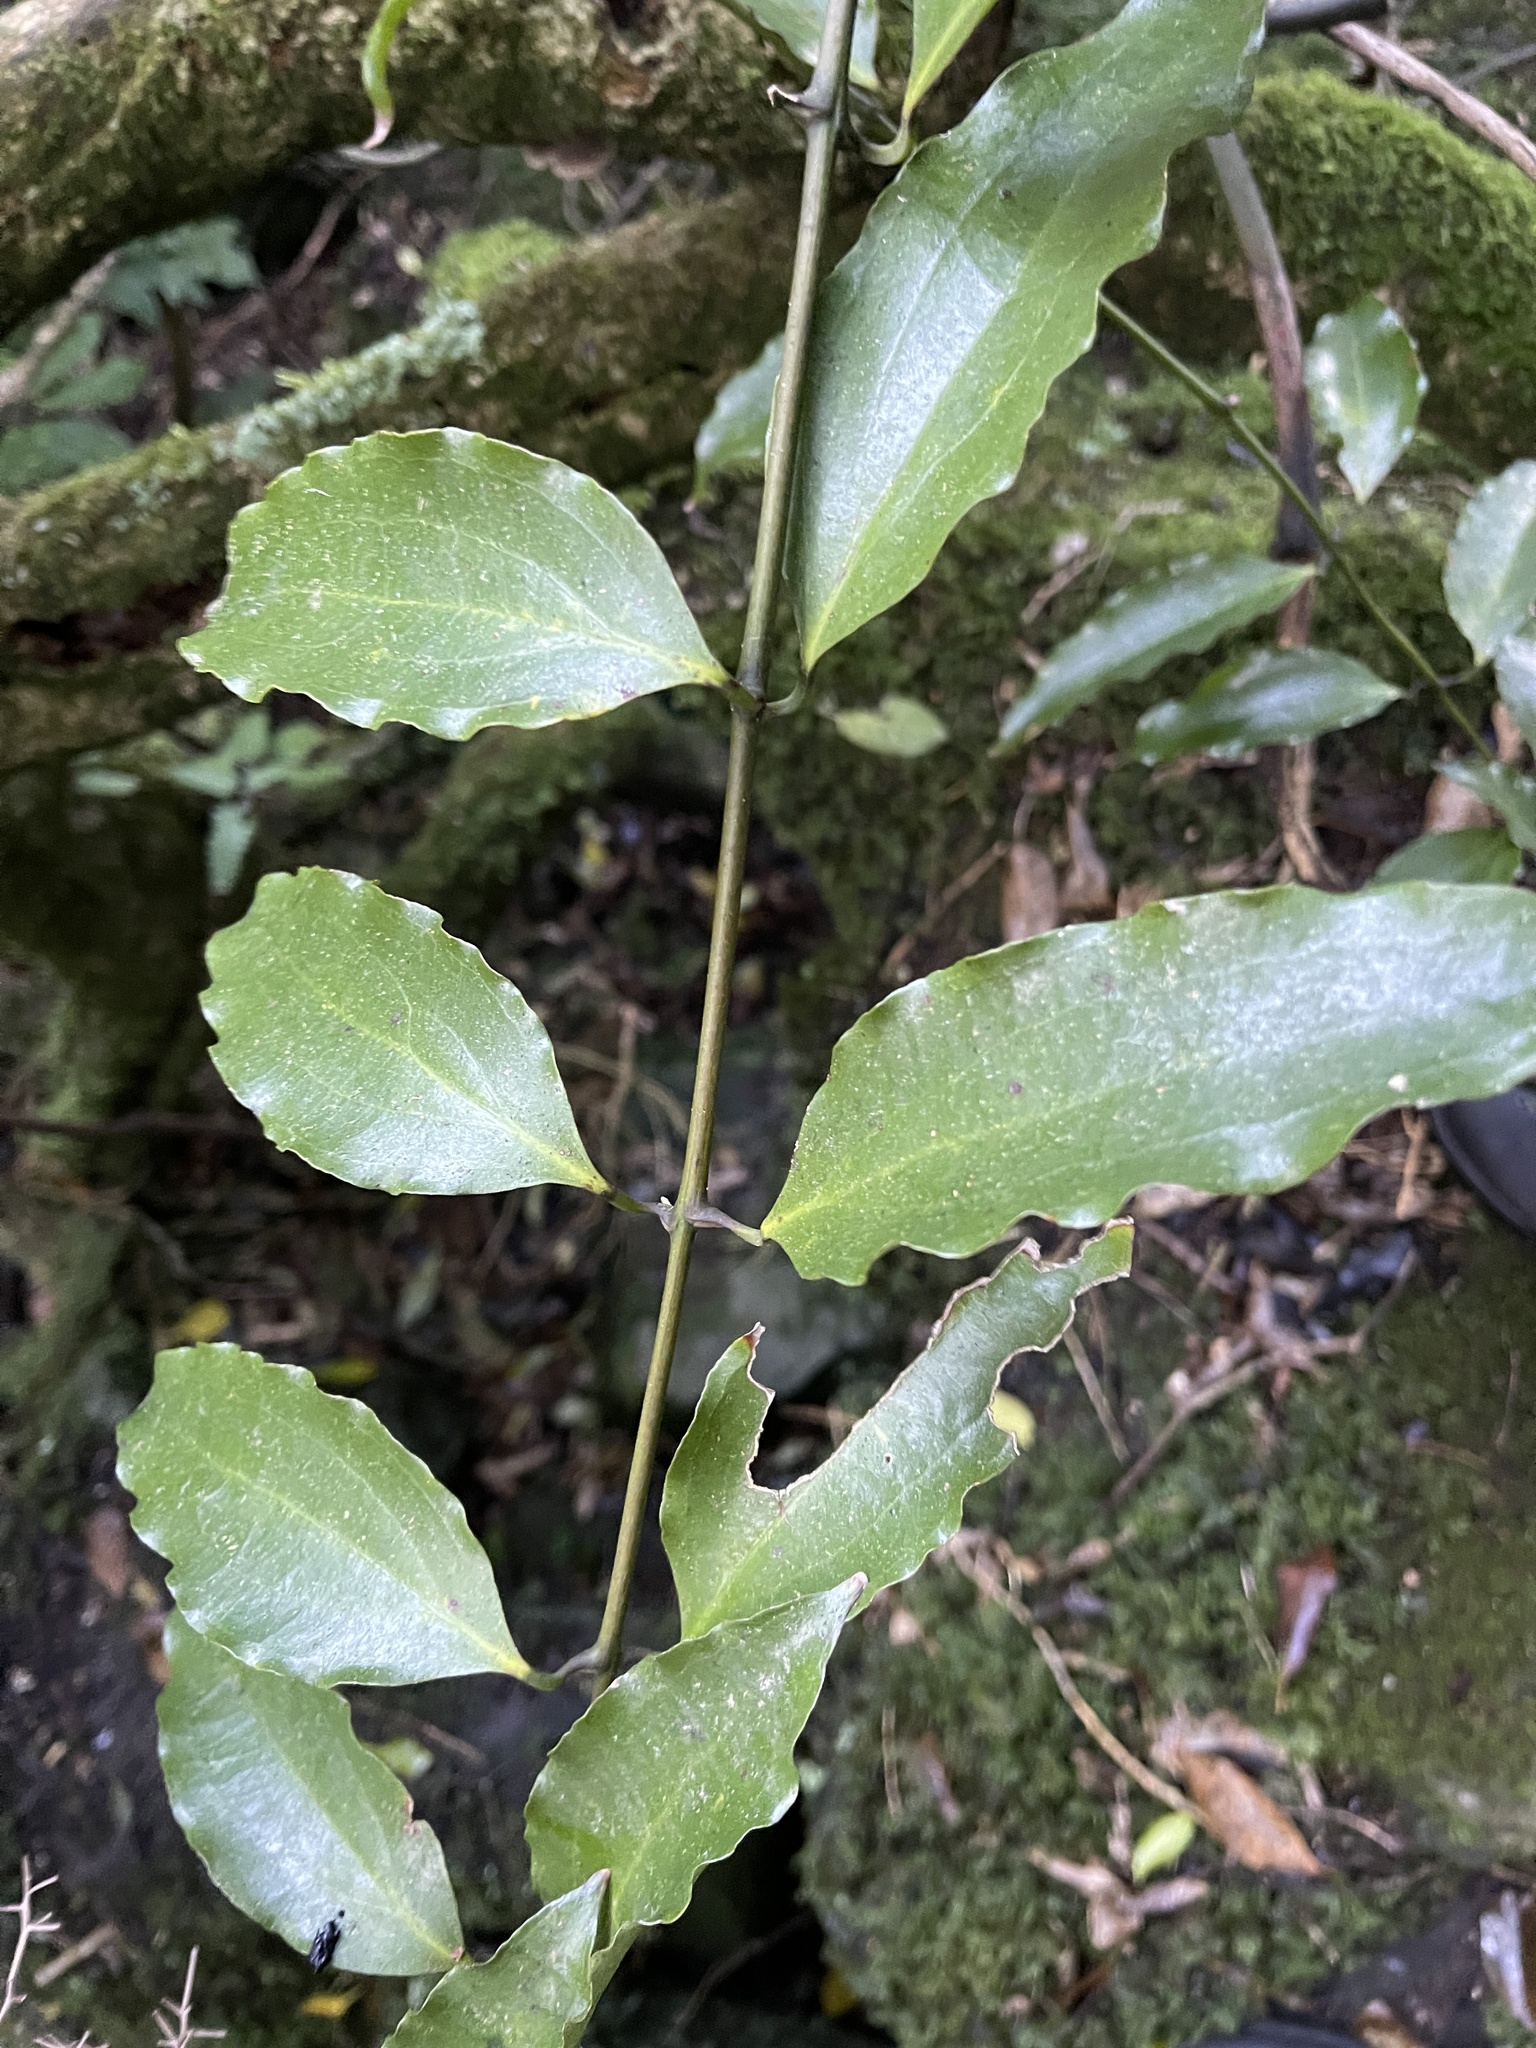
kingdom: Plantae
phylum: Tracheophyta
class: Liliopsida
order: Liliales
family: Ripogonaceae
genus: Ripogonum
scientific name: Ripogonum scandens
